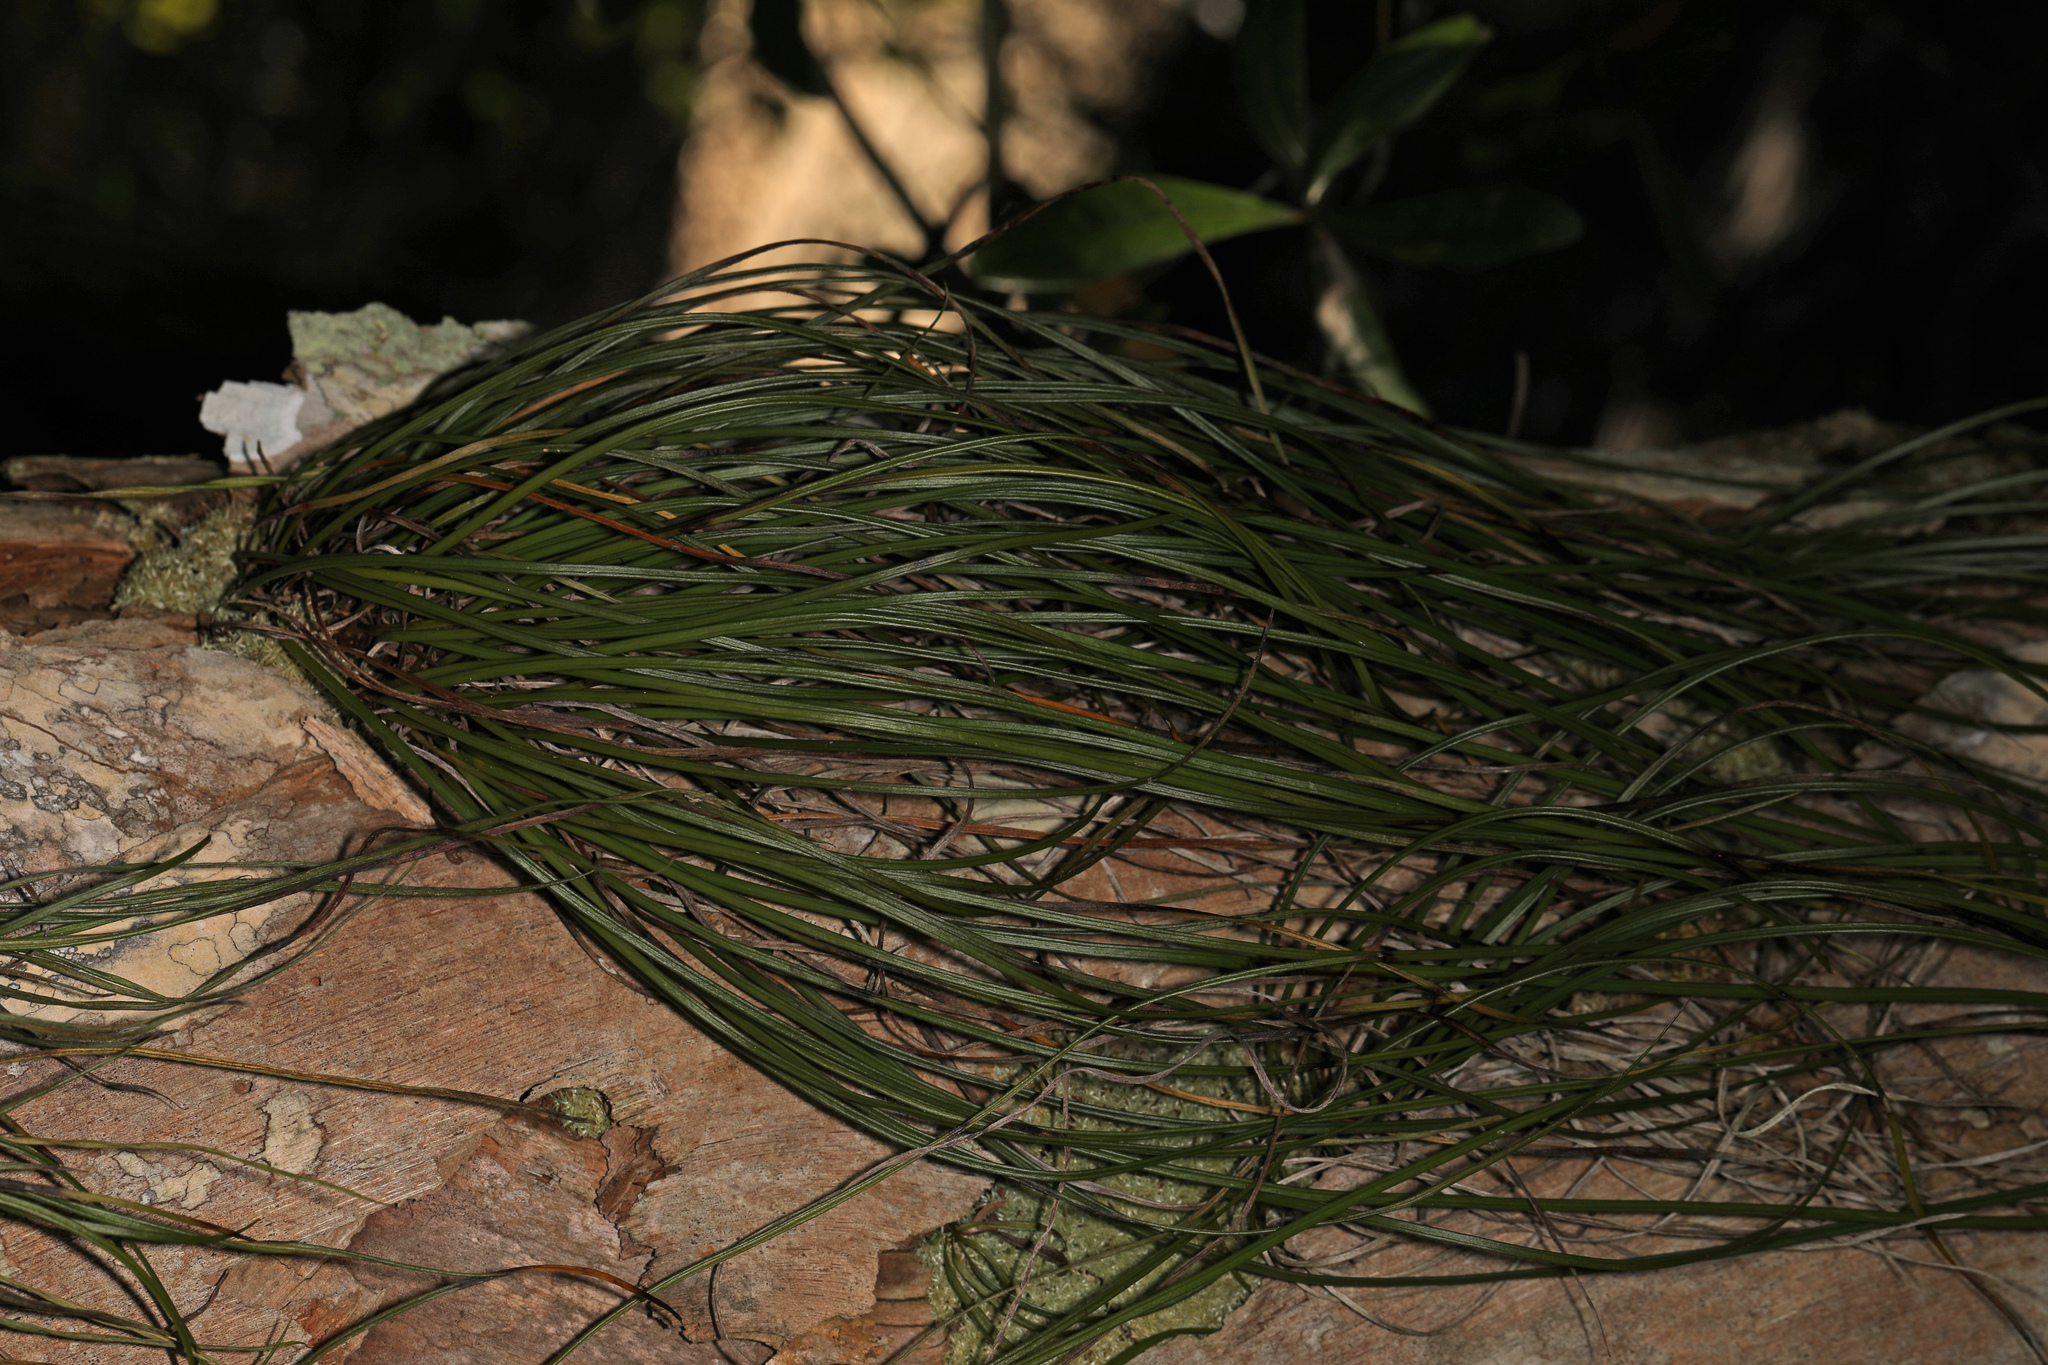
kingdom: Plantae
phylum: Tracheophyta
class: Polypodiopsida
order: Polypodiales
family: Pteridaceae
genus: Vittaria
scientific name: Vittaria lineata
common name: Shoestring fern
